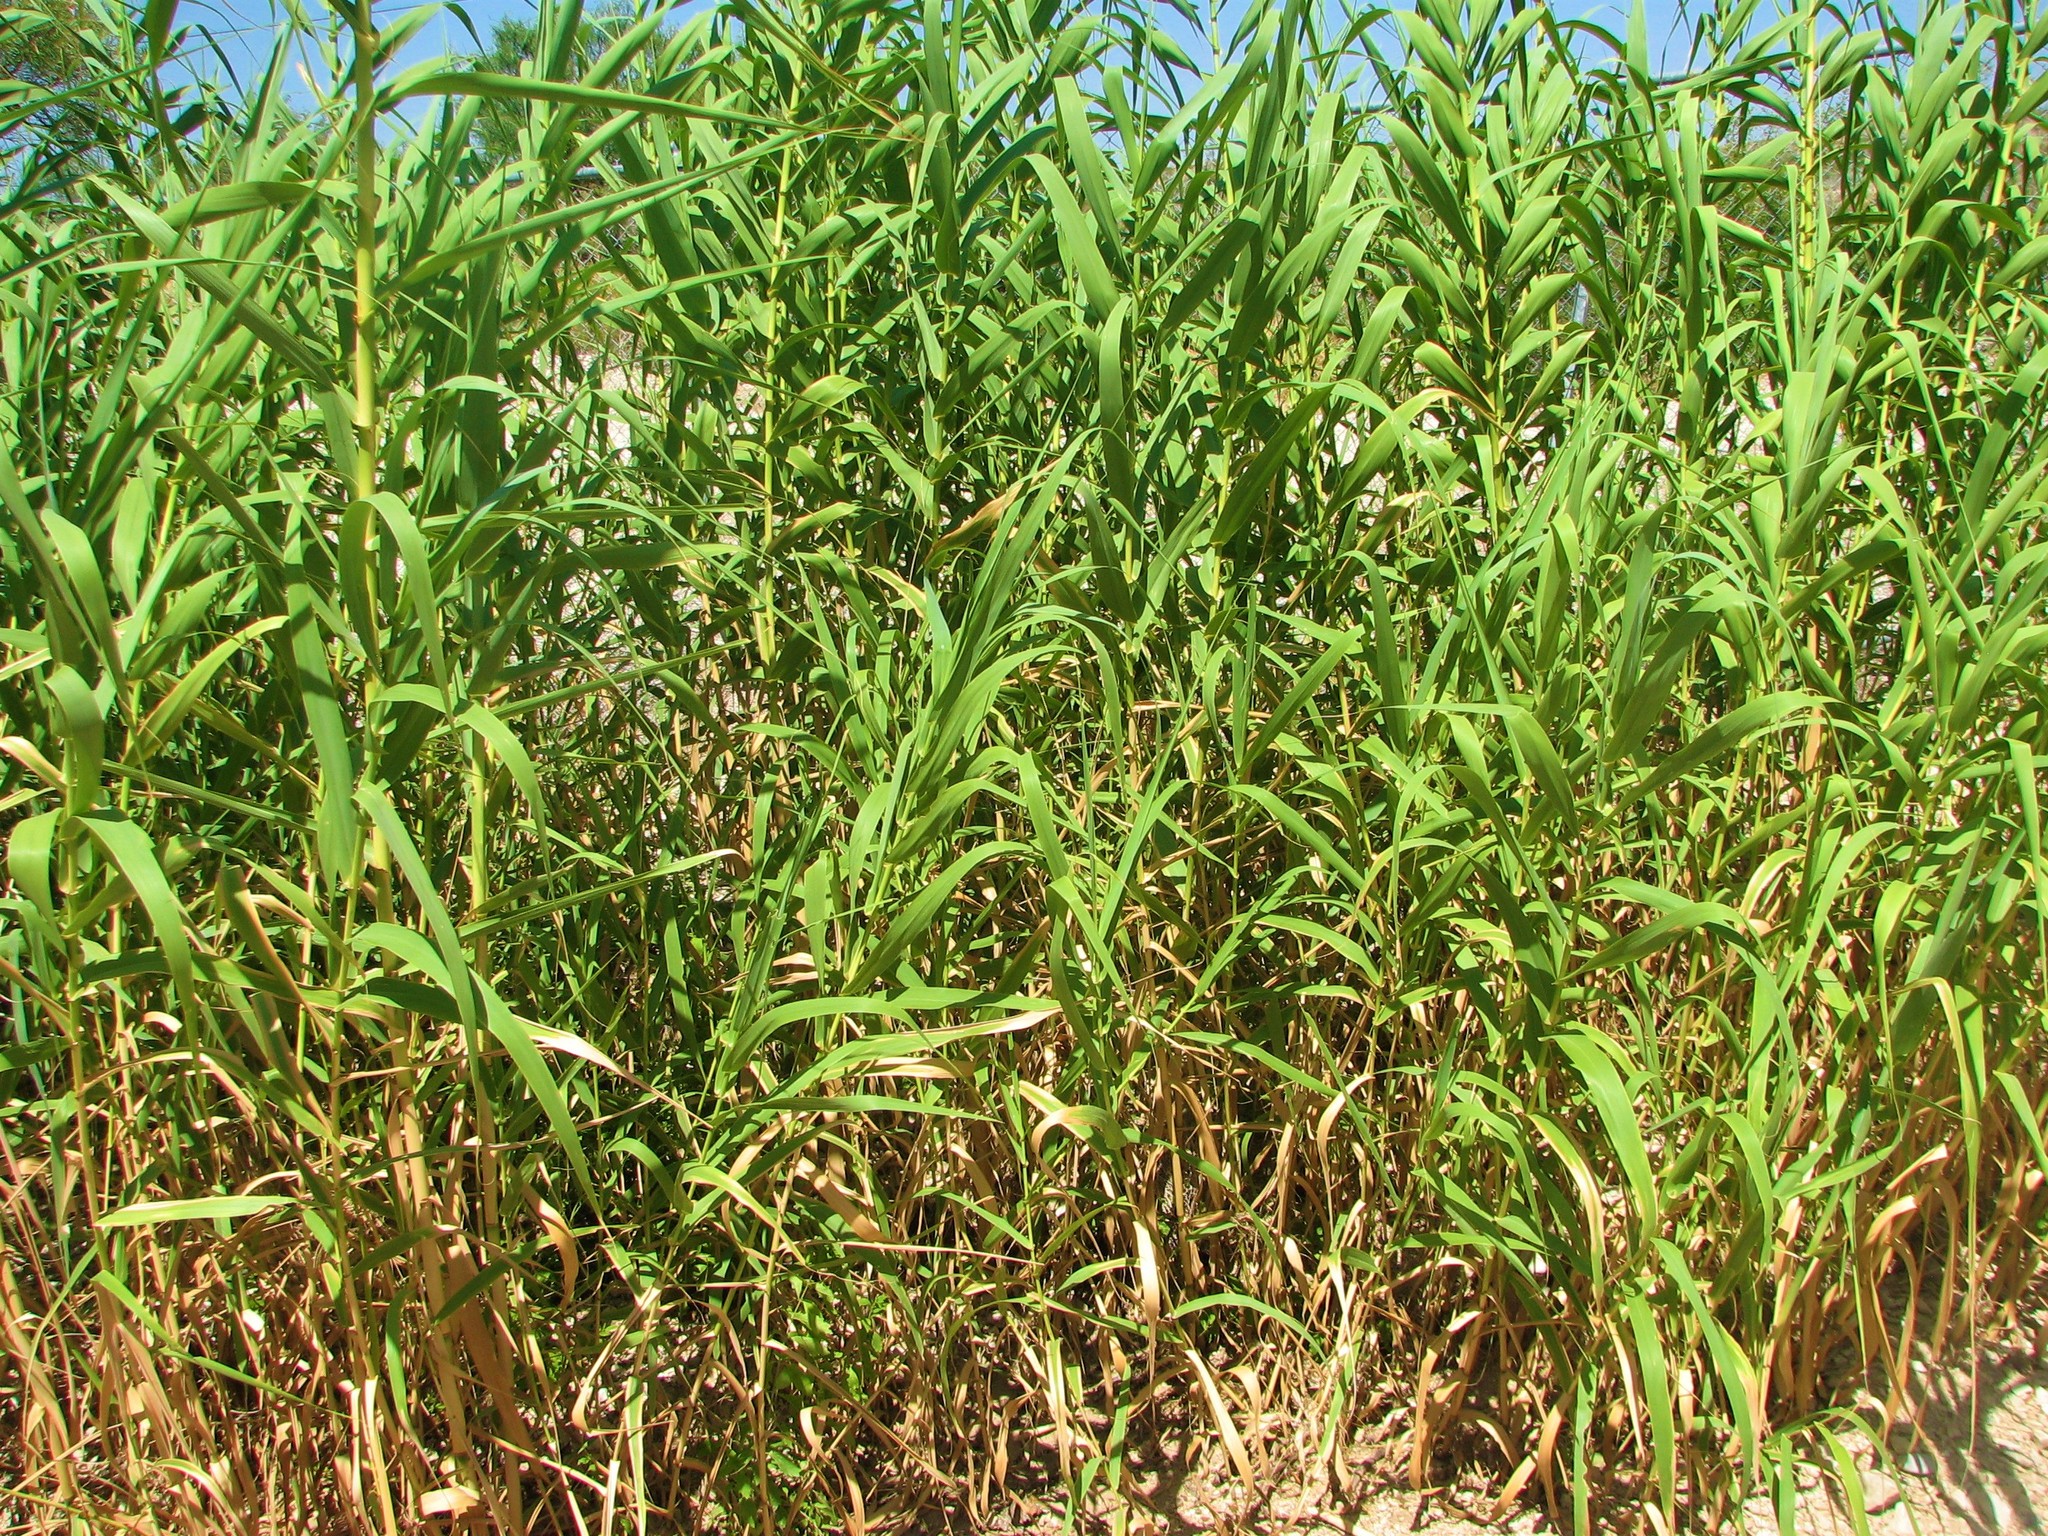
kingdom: Plantae
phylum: Tracheophyta
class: Liliopsida
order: Poales
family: Poaceae
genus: Arundo
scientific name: Arundo donax
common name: Giant reed
